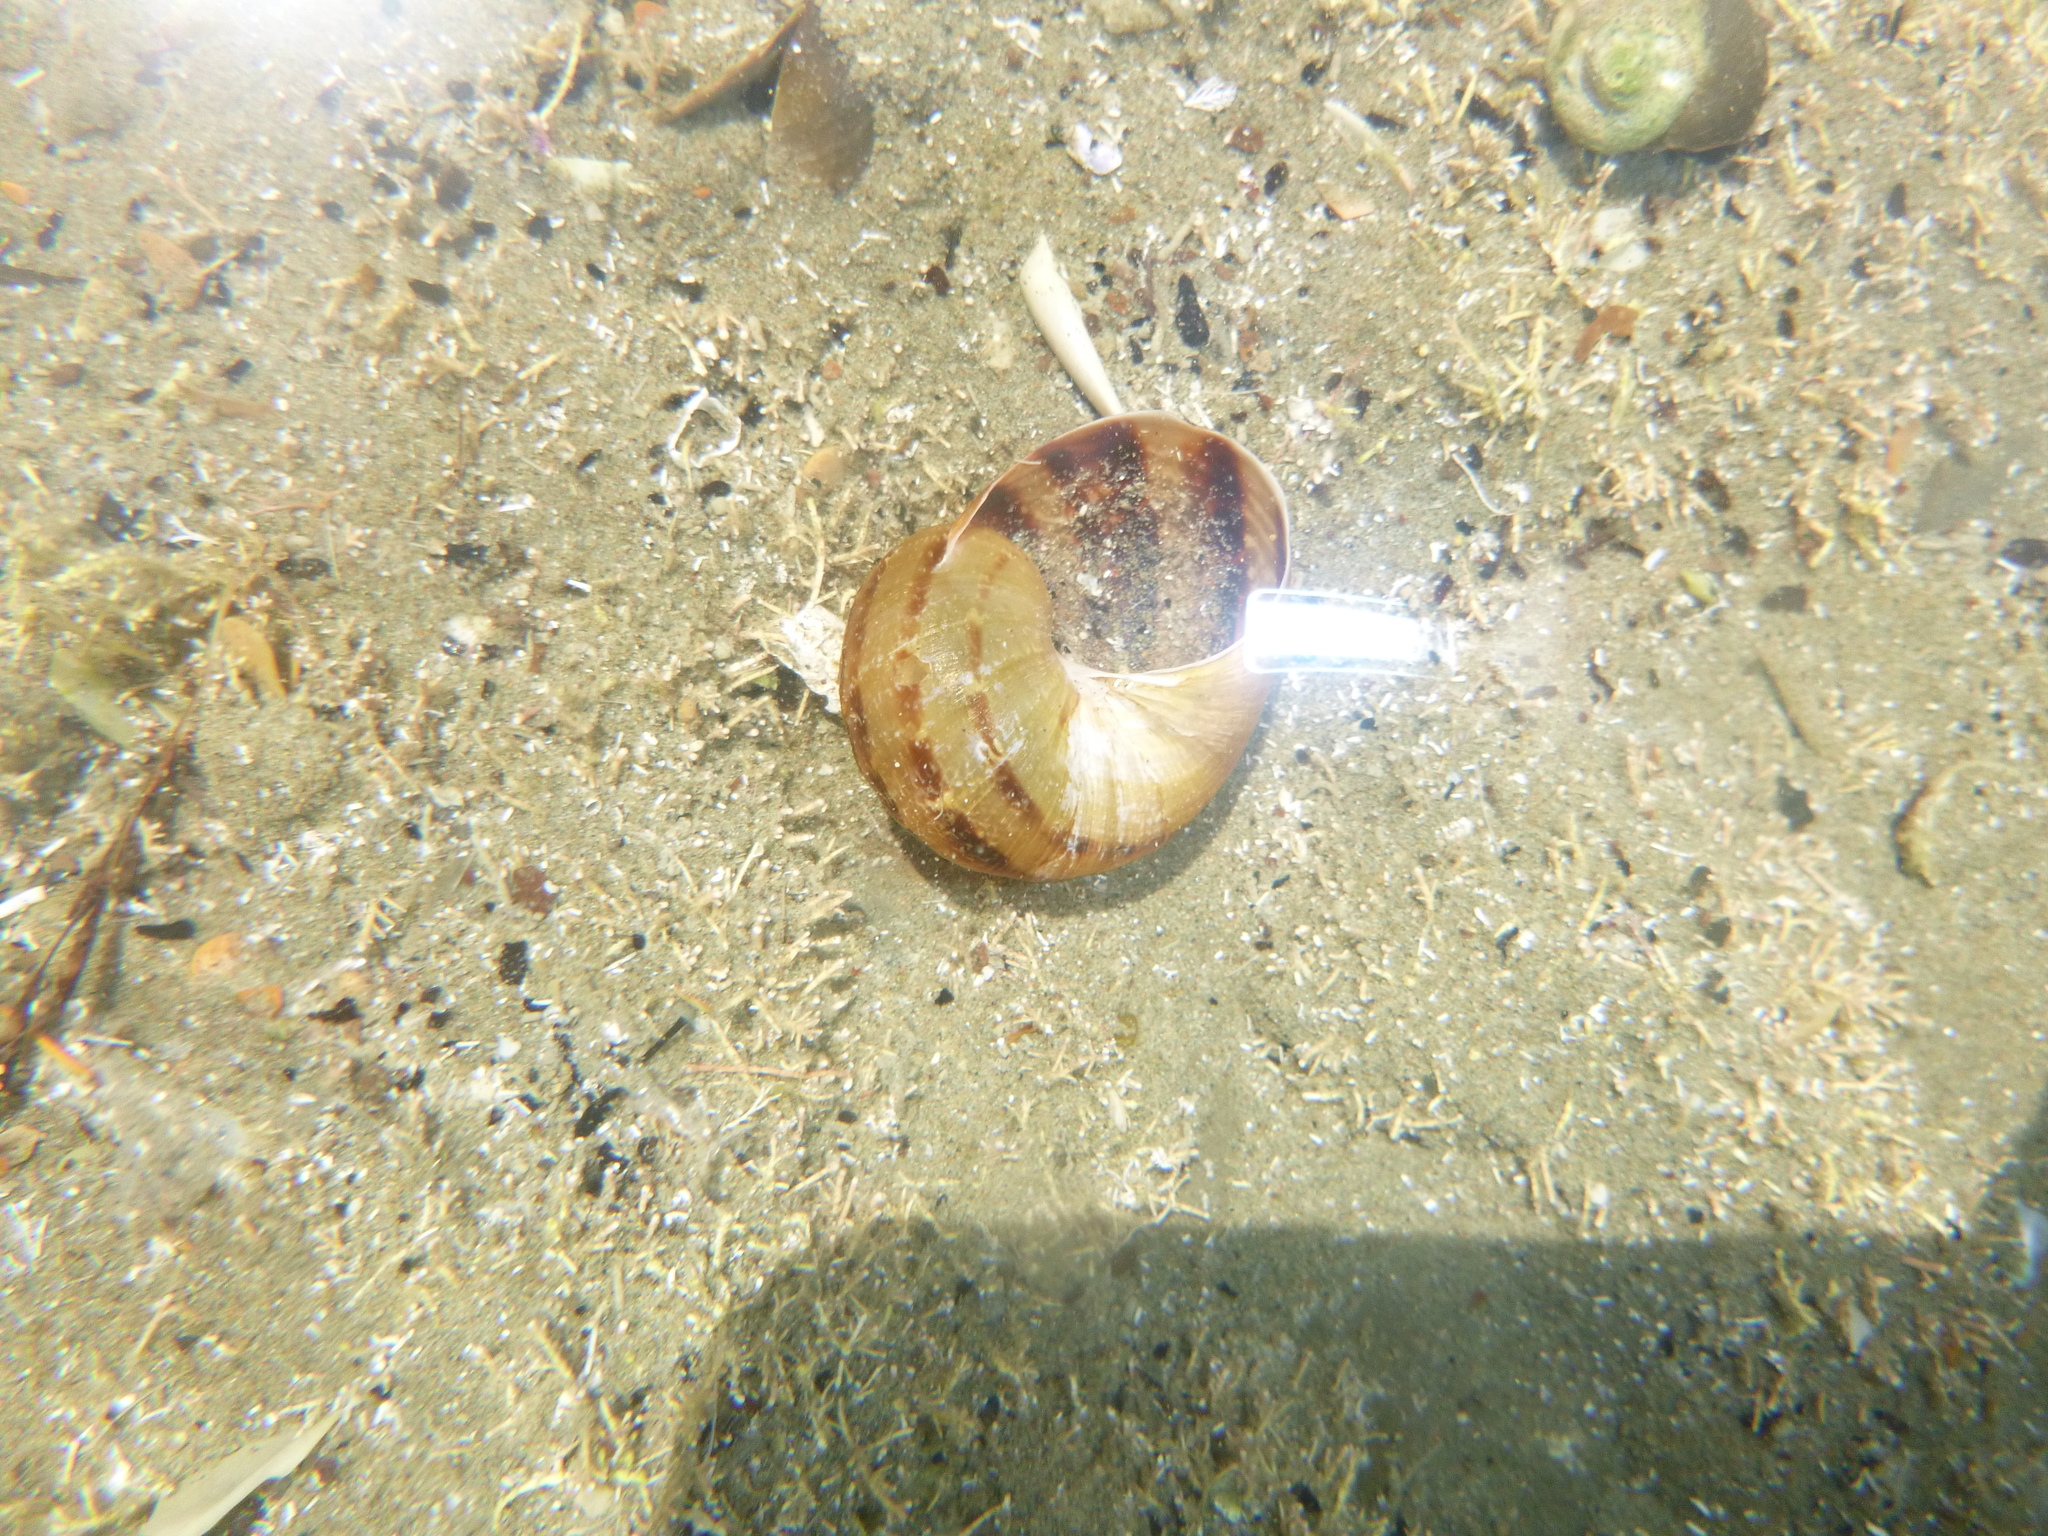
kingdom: Animalia
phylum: Mollusca
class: Gastropoda
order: Stylommatophora
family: Helicidae
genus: Cornu
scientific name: Cornu aspersum
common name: Brown garden snail
